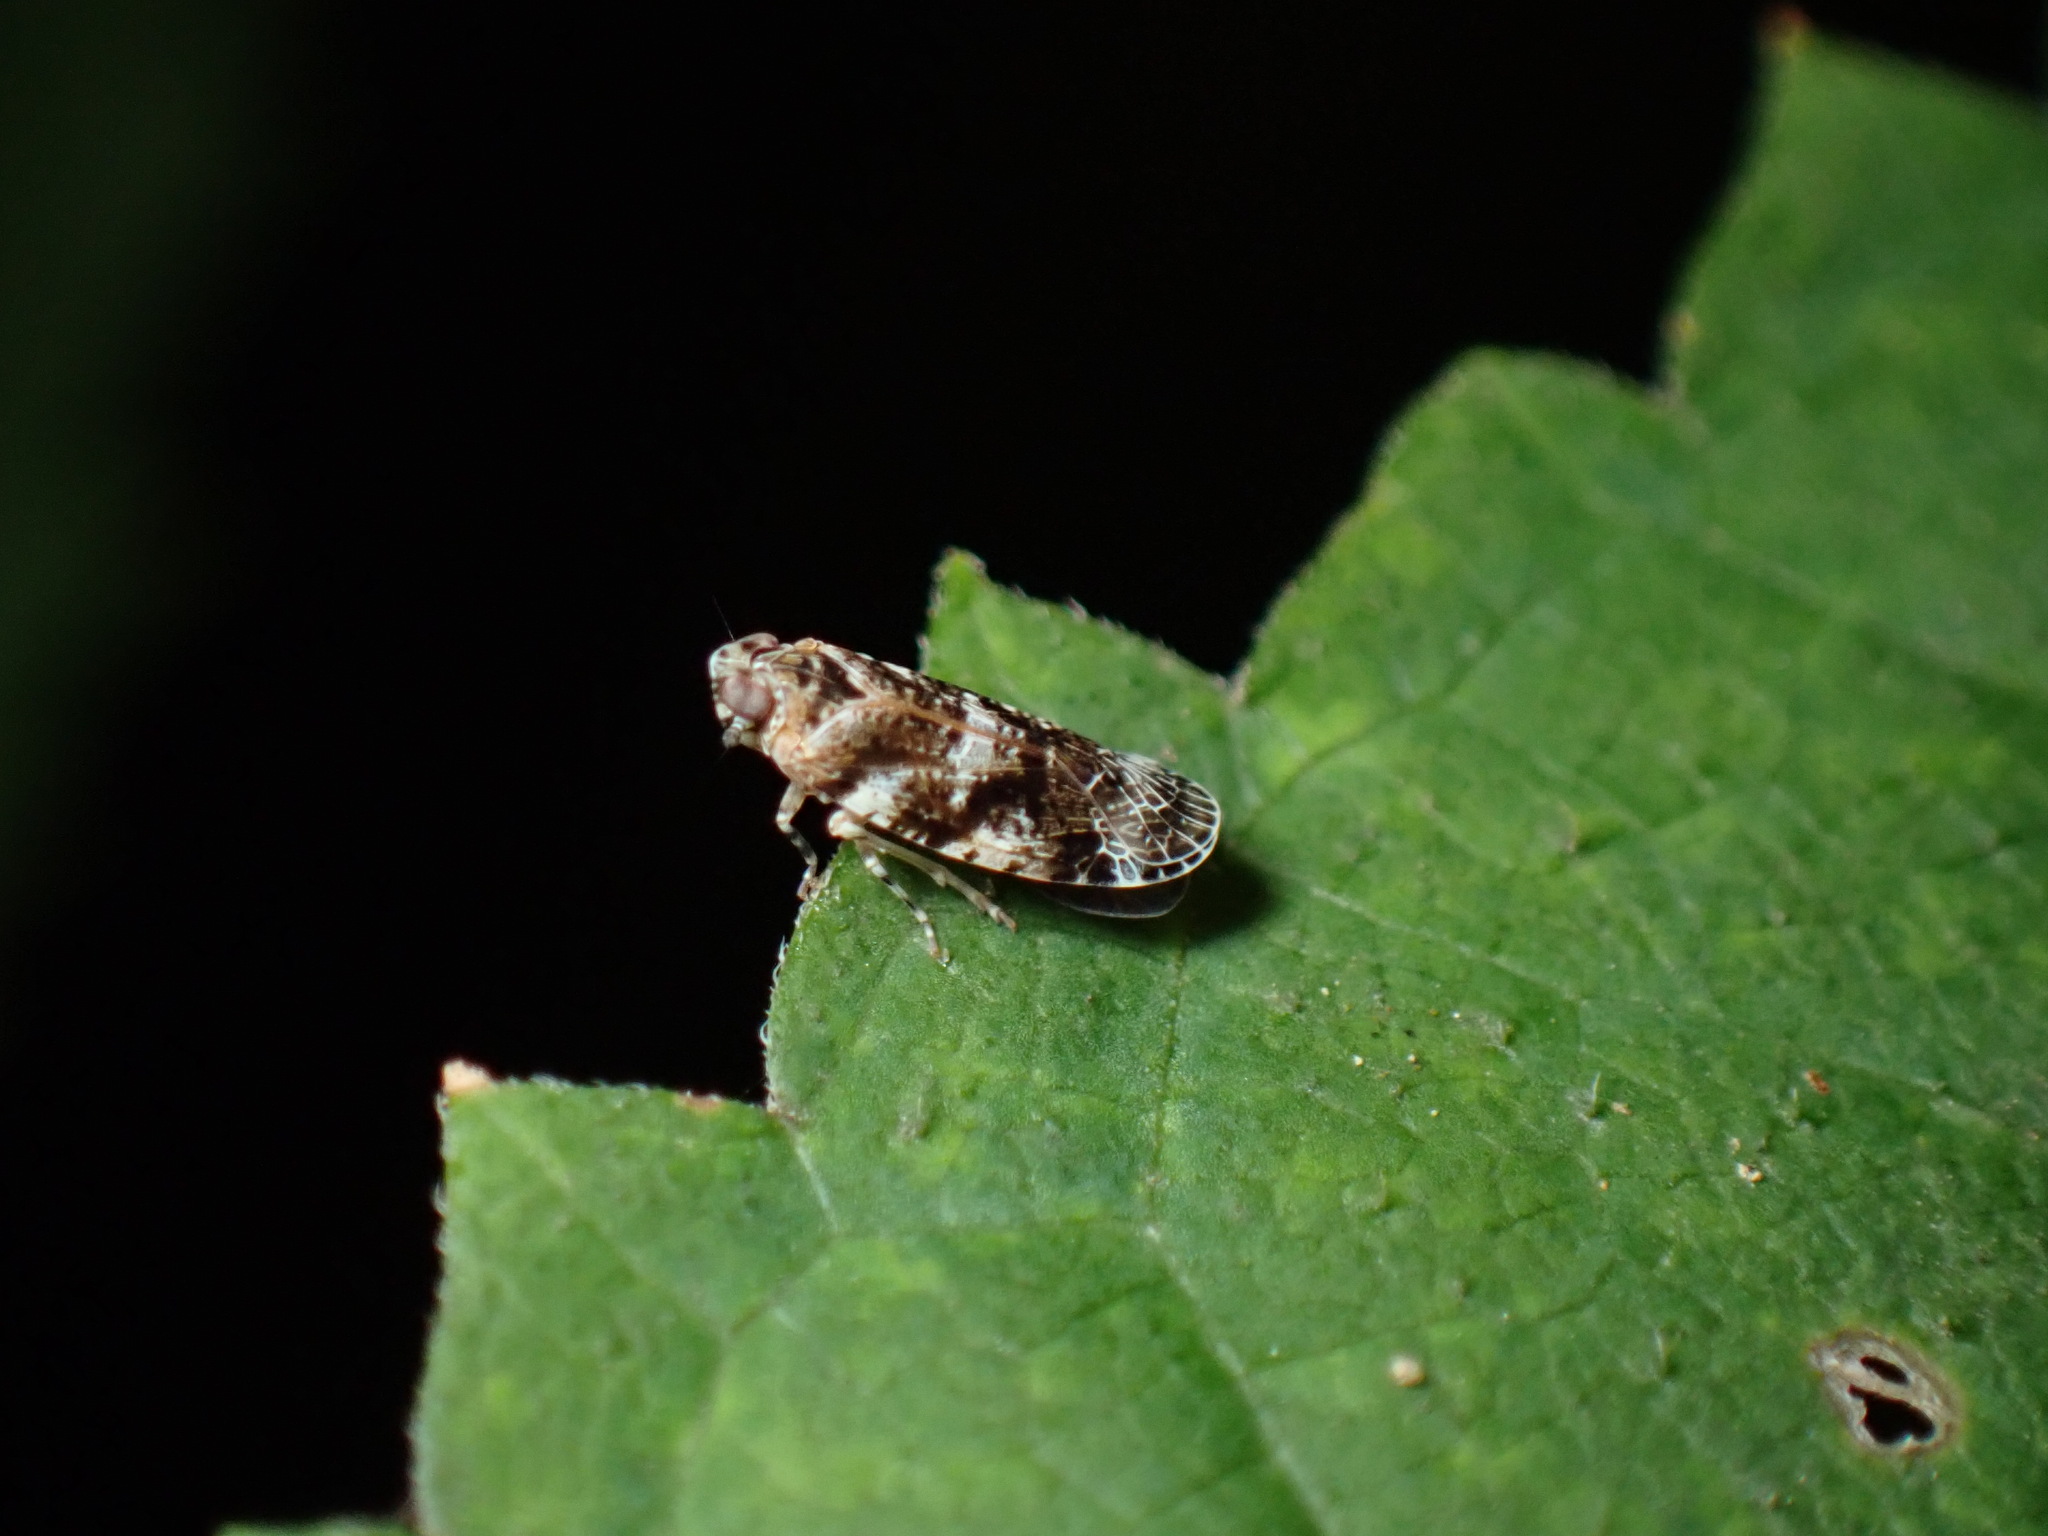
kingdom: Animalia
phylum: Arthropoda
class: Insecta
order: Hemiptera
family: Achilidae
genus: Catonia
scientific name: Catonia nava
